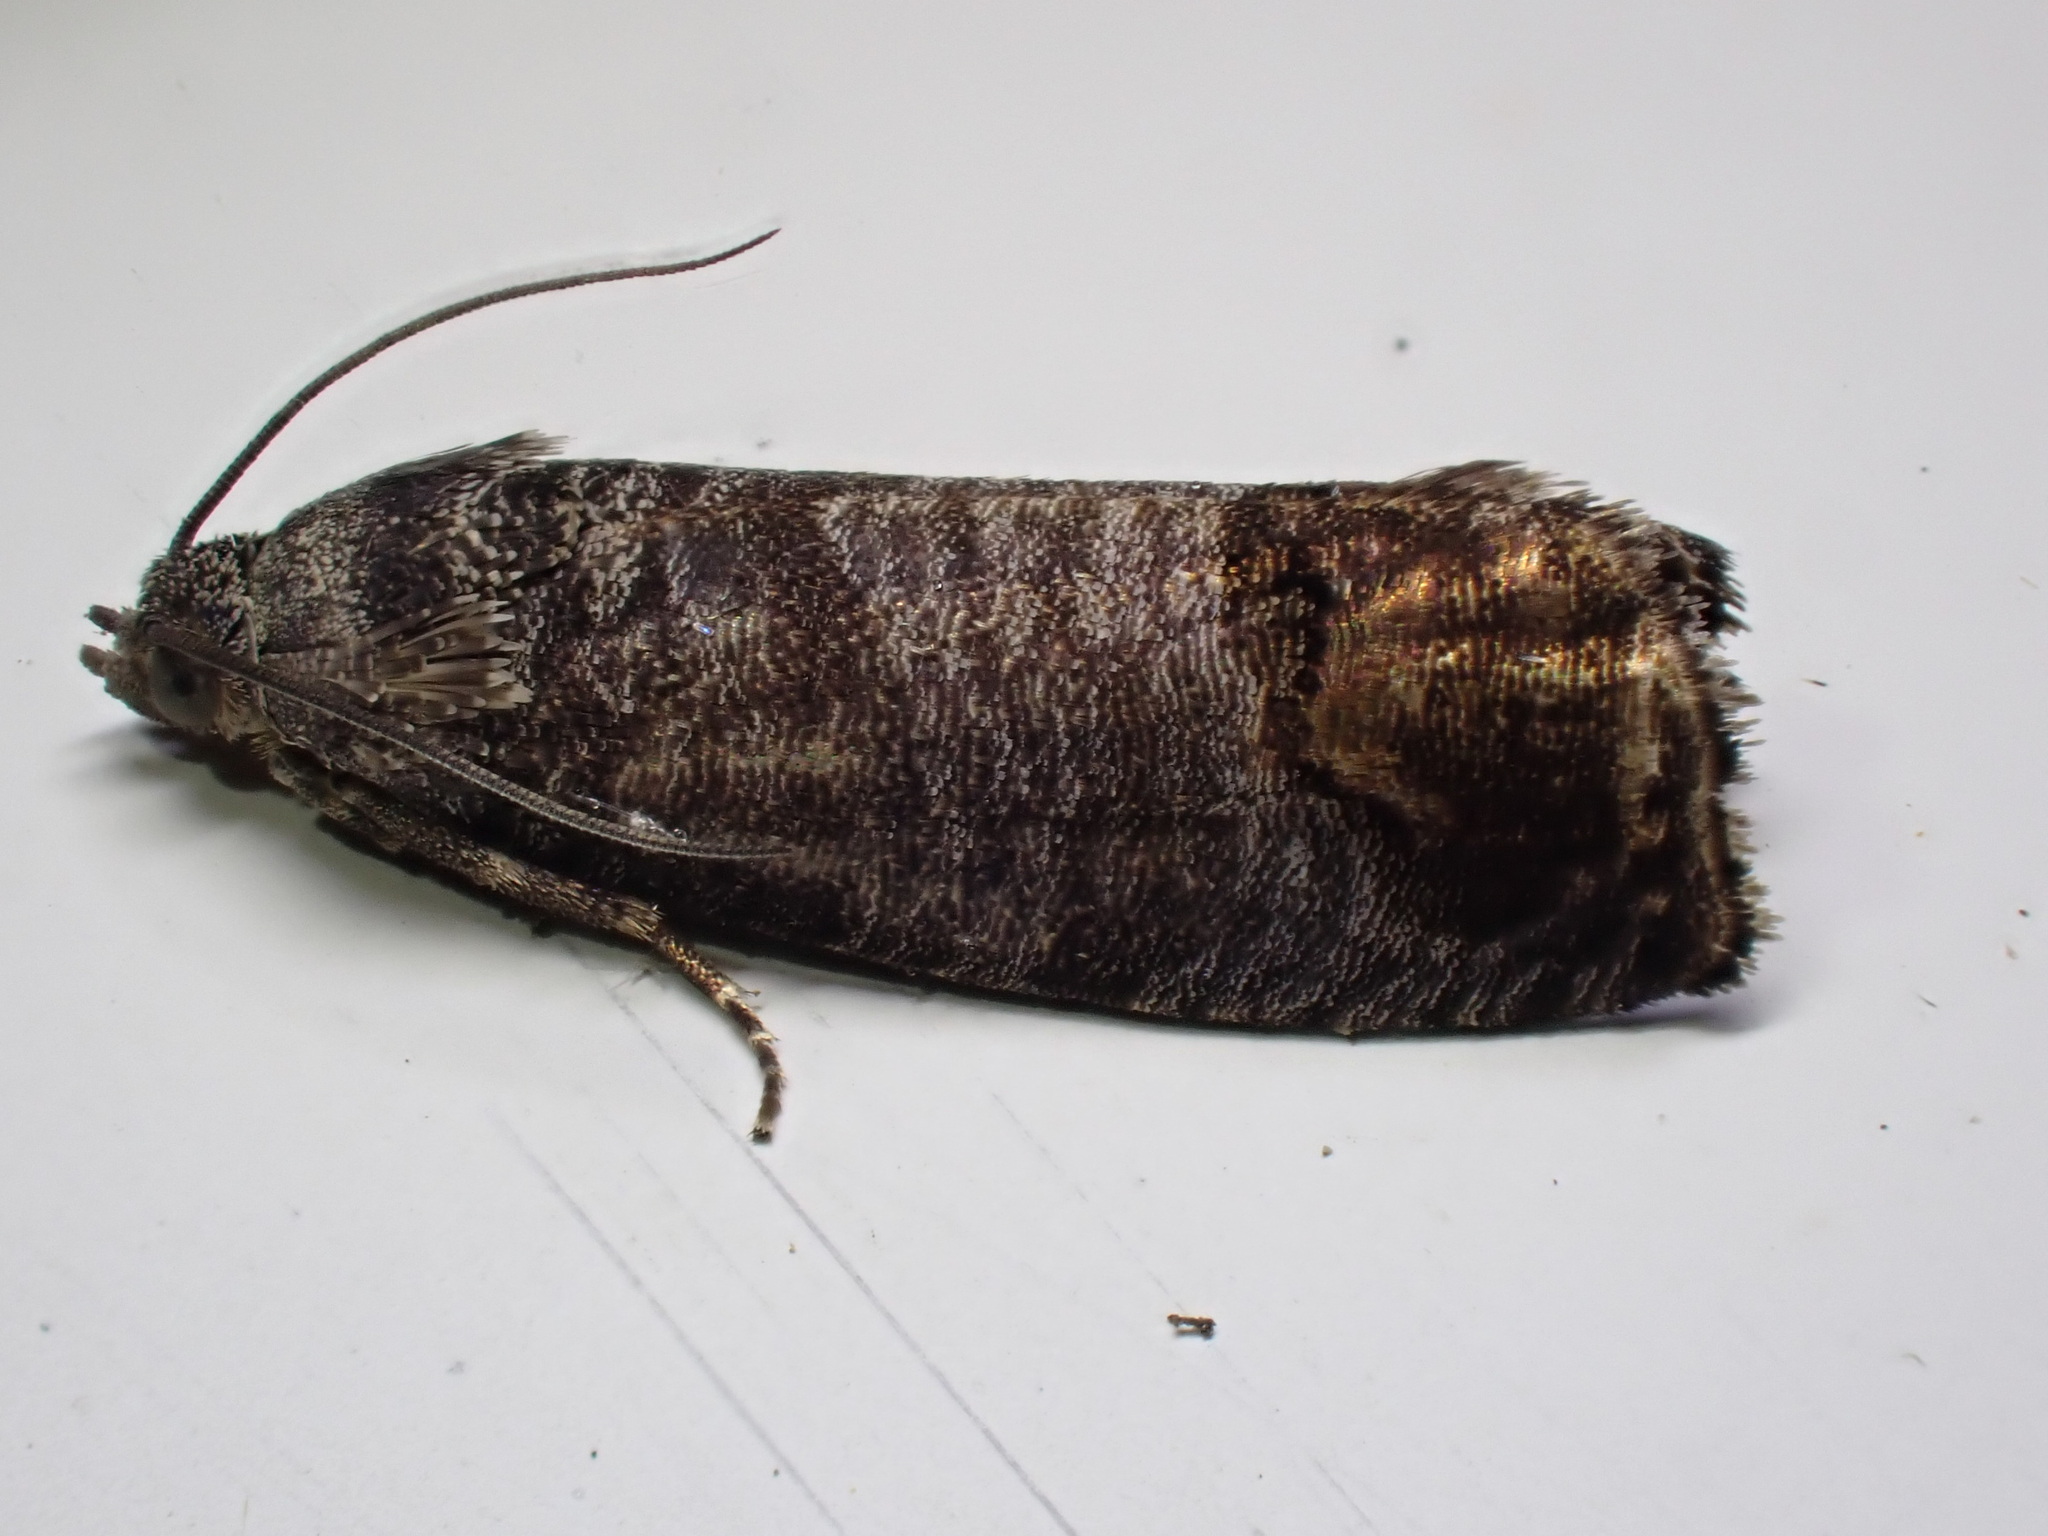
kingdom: Animalia
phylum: Arthropoda
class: Insecta
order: Lepidoptera
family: Tortricidae
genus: Cydia
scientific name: Cydia pomonella
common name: Codling moth
